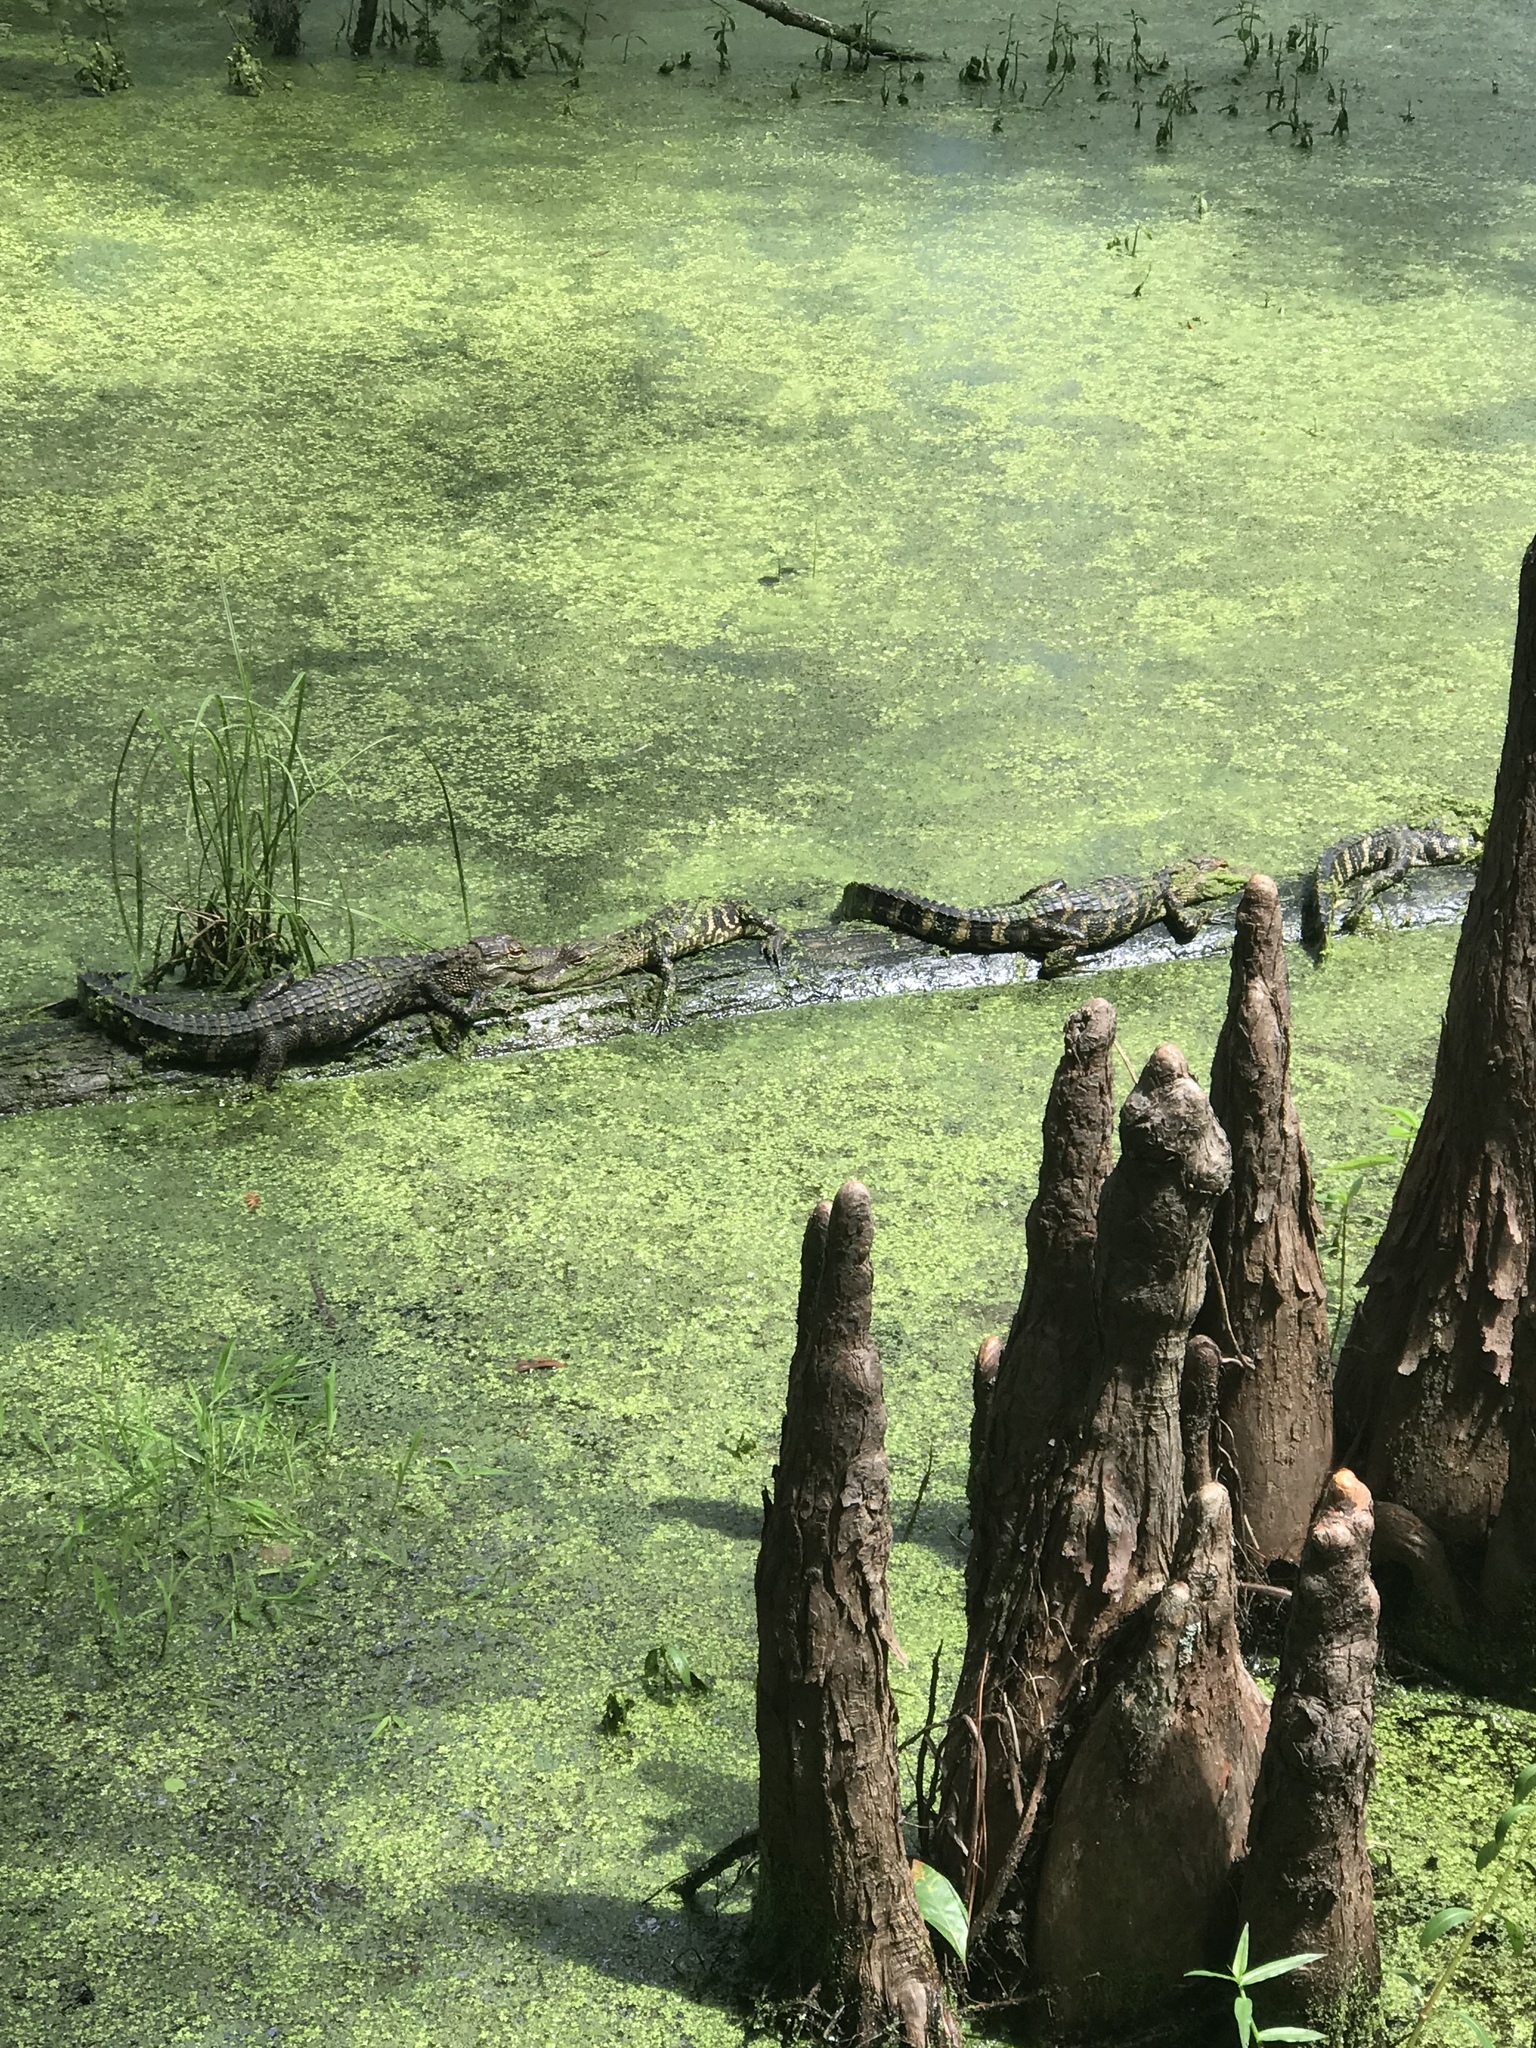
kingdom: Animalia
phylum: Chordata
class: Crocodylia
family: Alligatoridae
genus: Alligator
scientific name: Alligator mississippiensis
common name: American alligator
